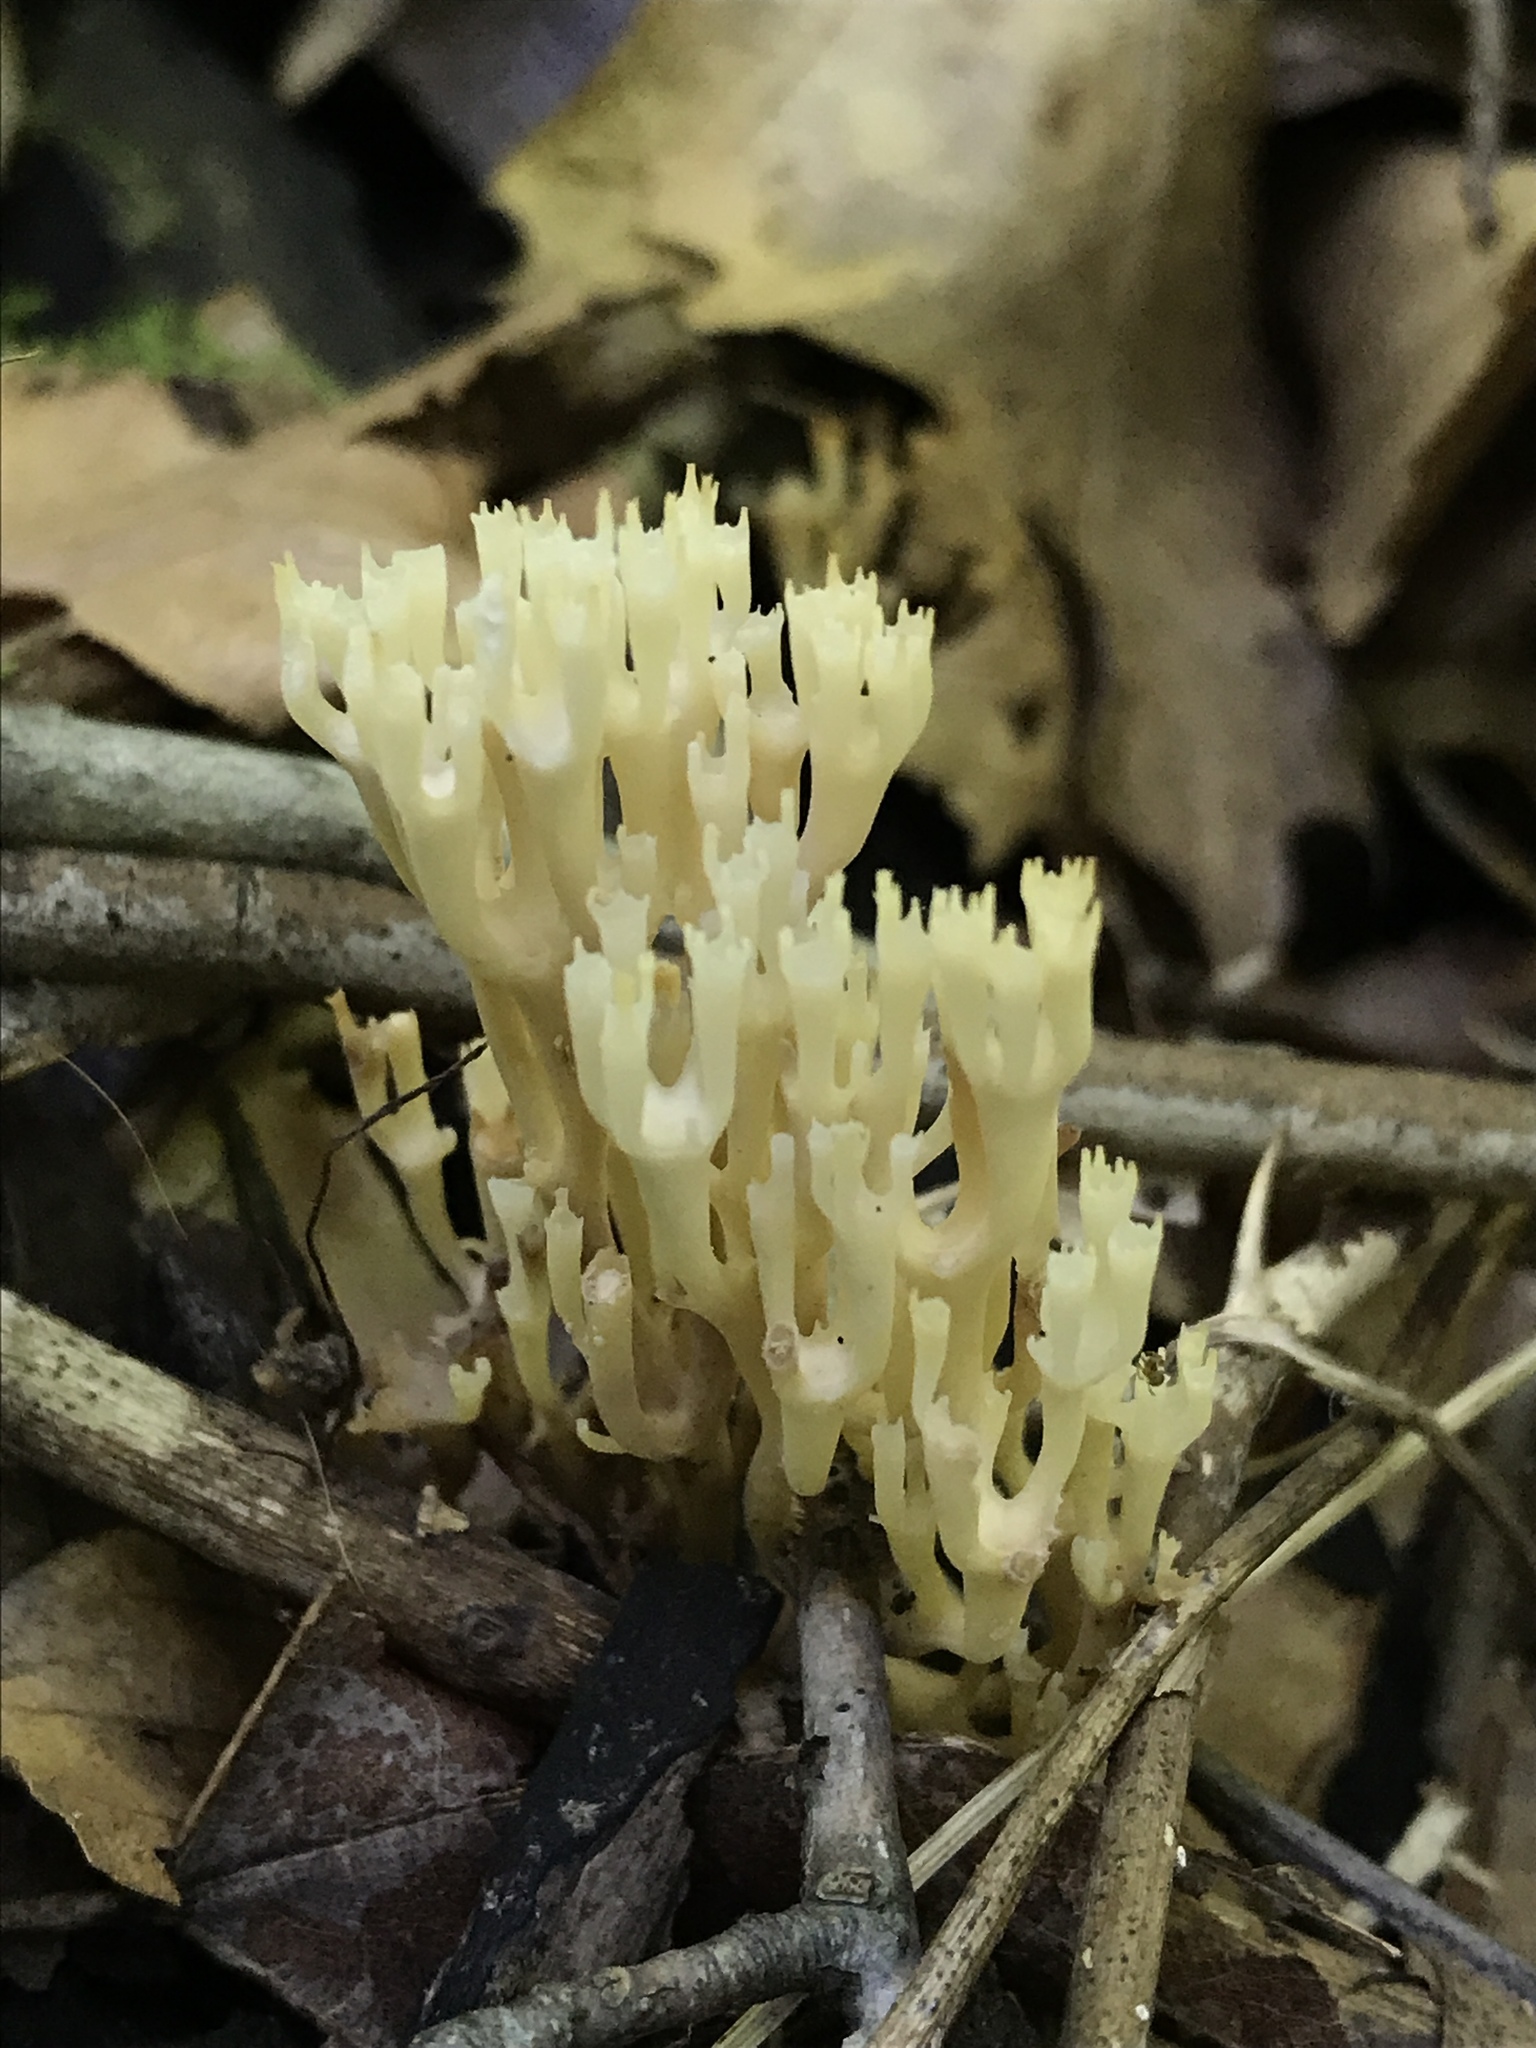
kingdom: Fungi
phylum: Basidiomycota
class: Agaricomycetes
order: Russulales
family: Auriscalpiaceae
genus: Artomyces
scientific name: Artomyces pyxidatus
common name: Crown-tipped coral fungus
